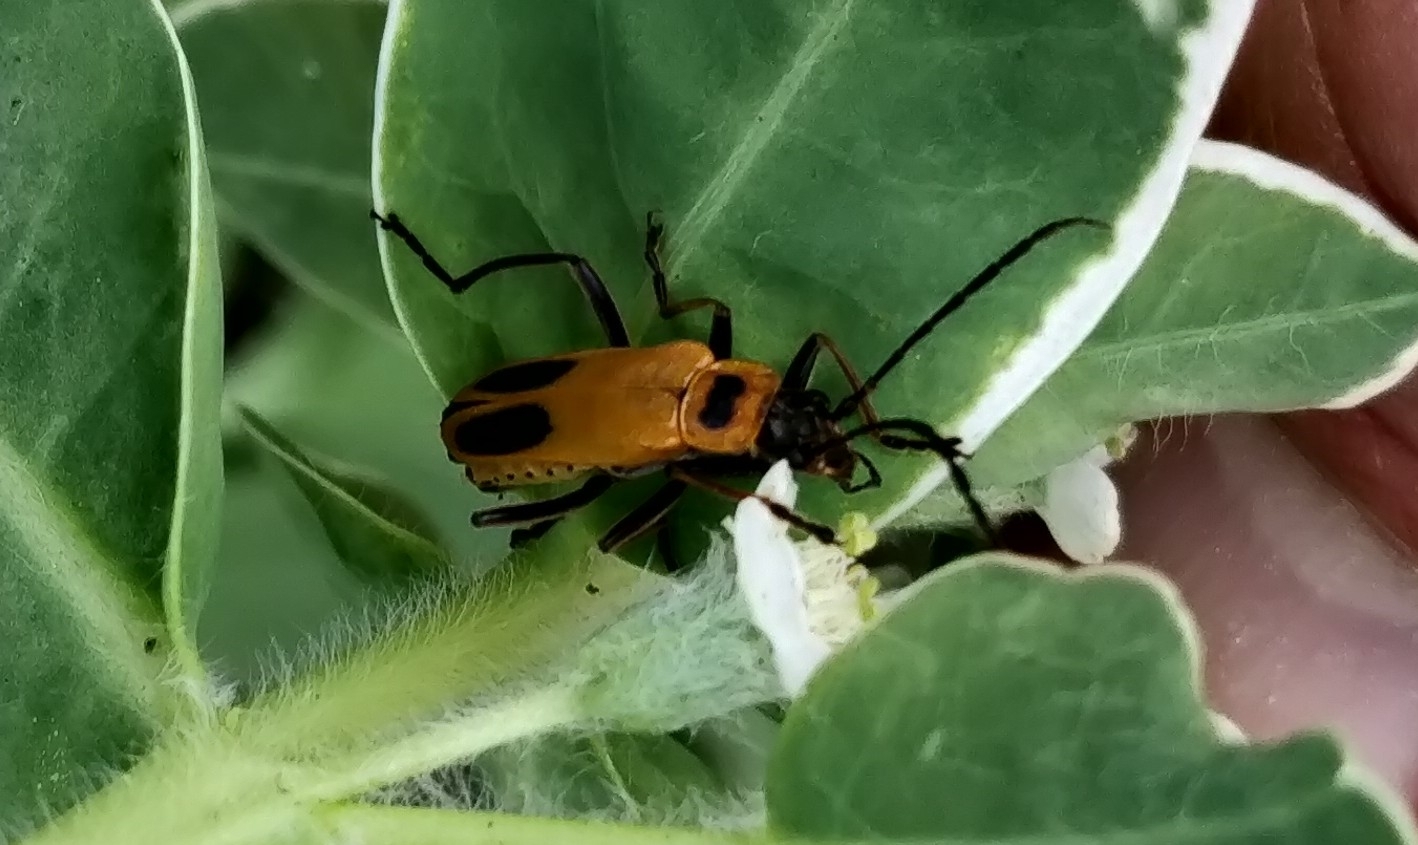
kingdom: Animalia
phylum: Arthropoda
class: Insecta
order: Coleoptera
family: Cantharidae
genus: Chauliognathus
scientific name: Chauliognathus pensylvanicus
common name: Goldenrod soldier beetle
